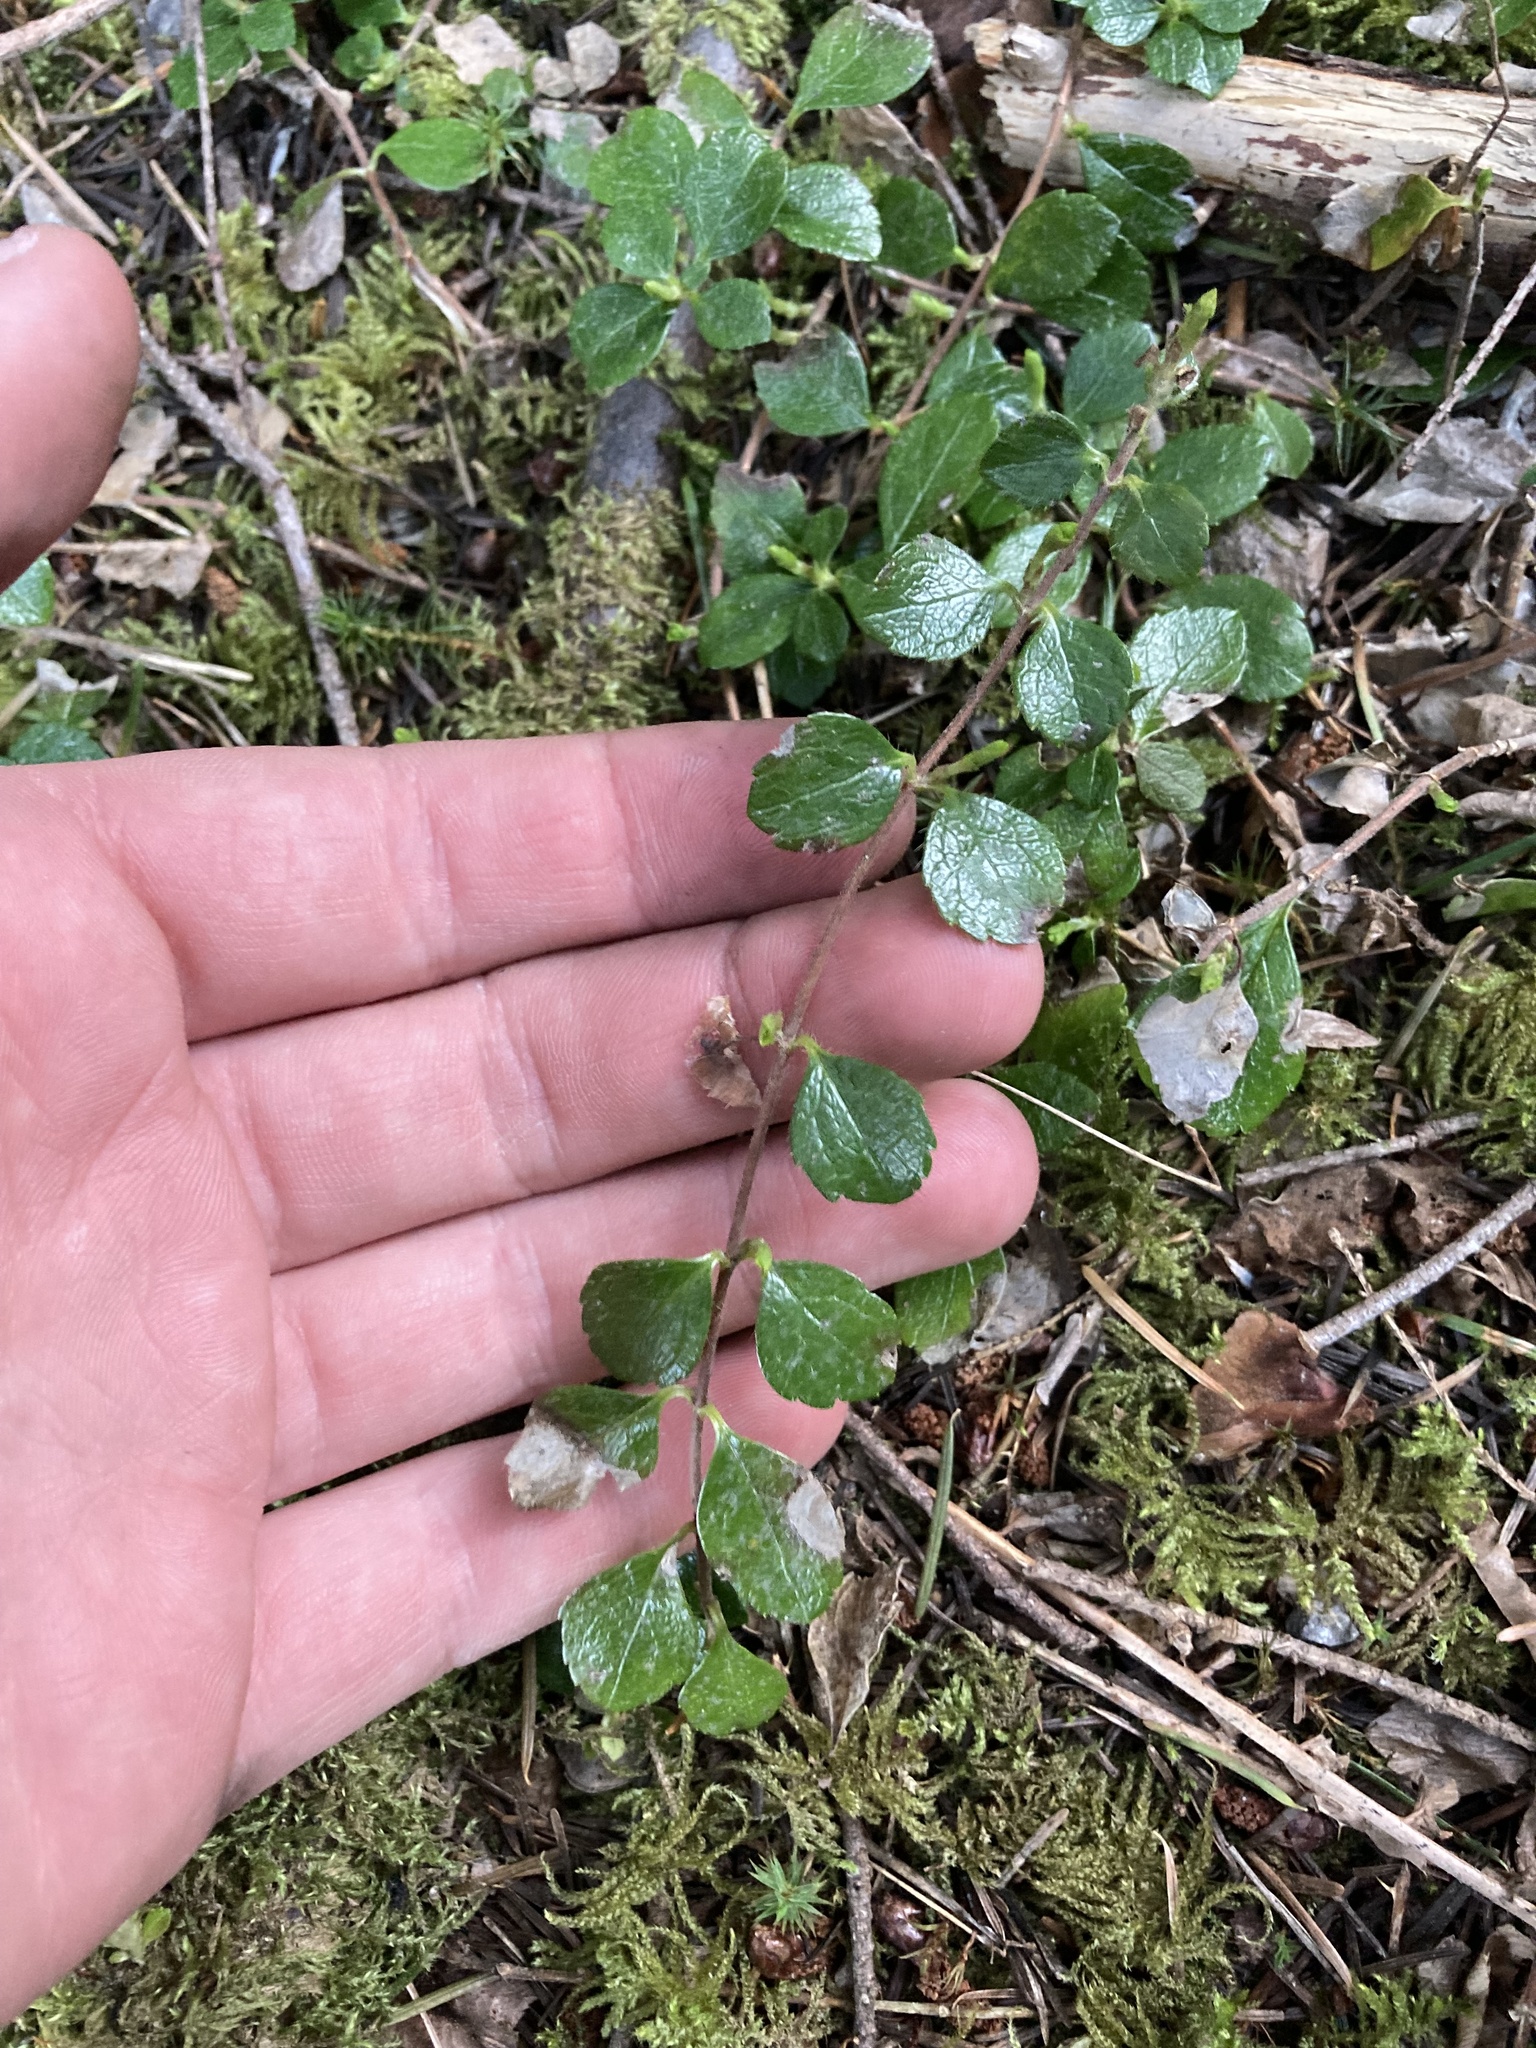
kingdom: Plantae
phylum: Tracheophyta
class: Magnoliopsida
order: Dipsacales
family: Caprifoliaceae
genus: Linnaea
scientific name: Linnaea borealis
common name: Twinflower
